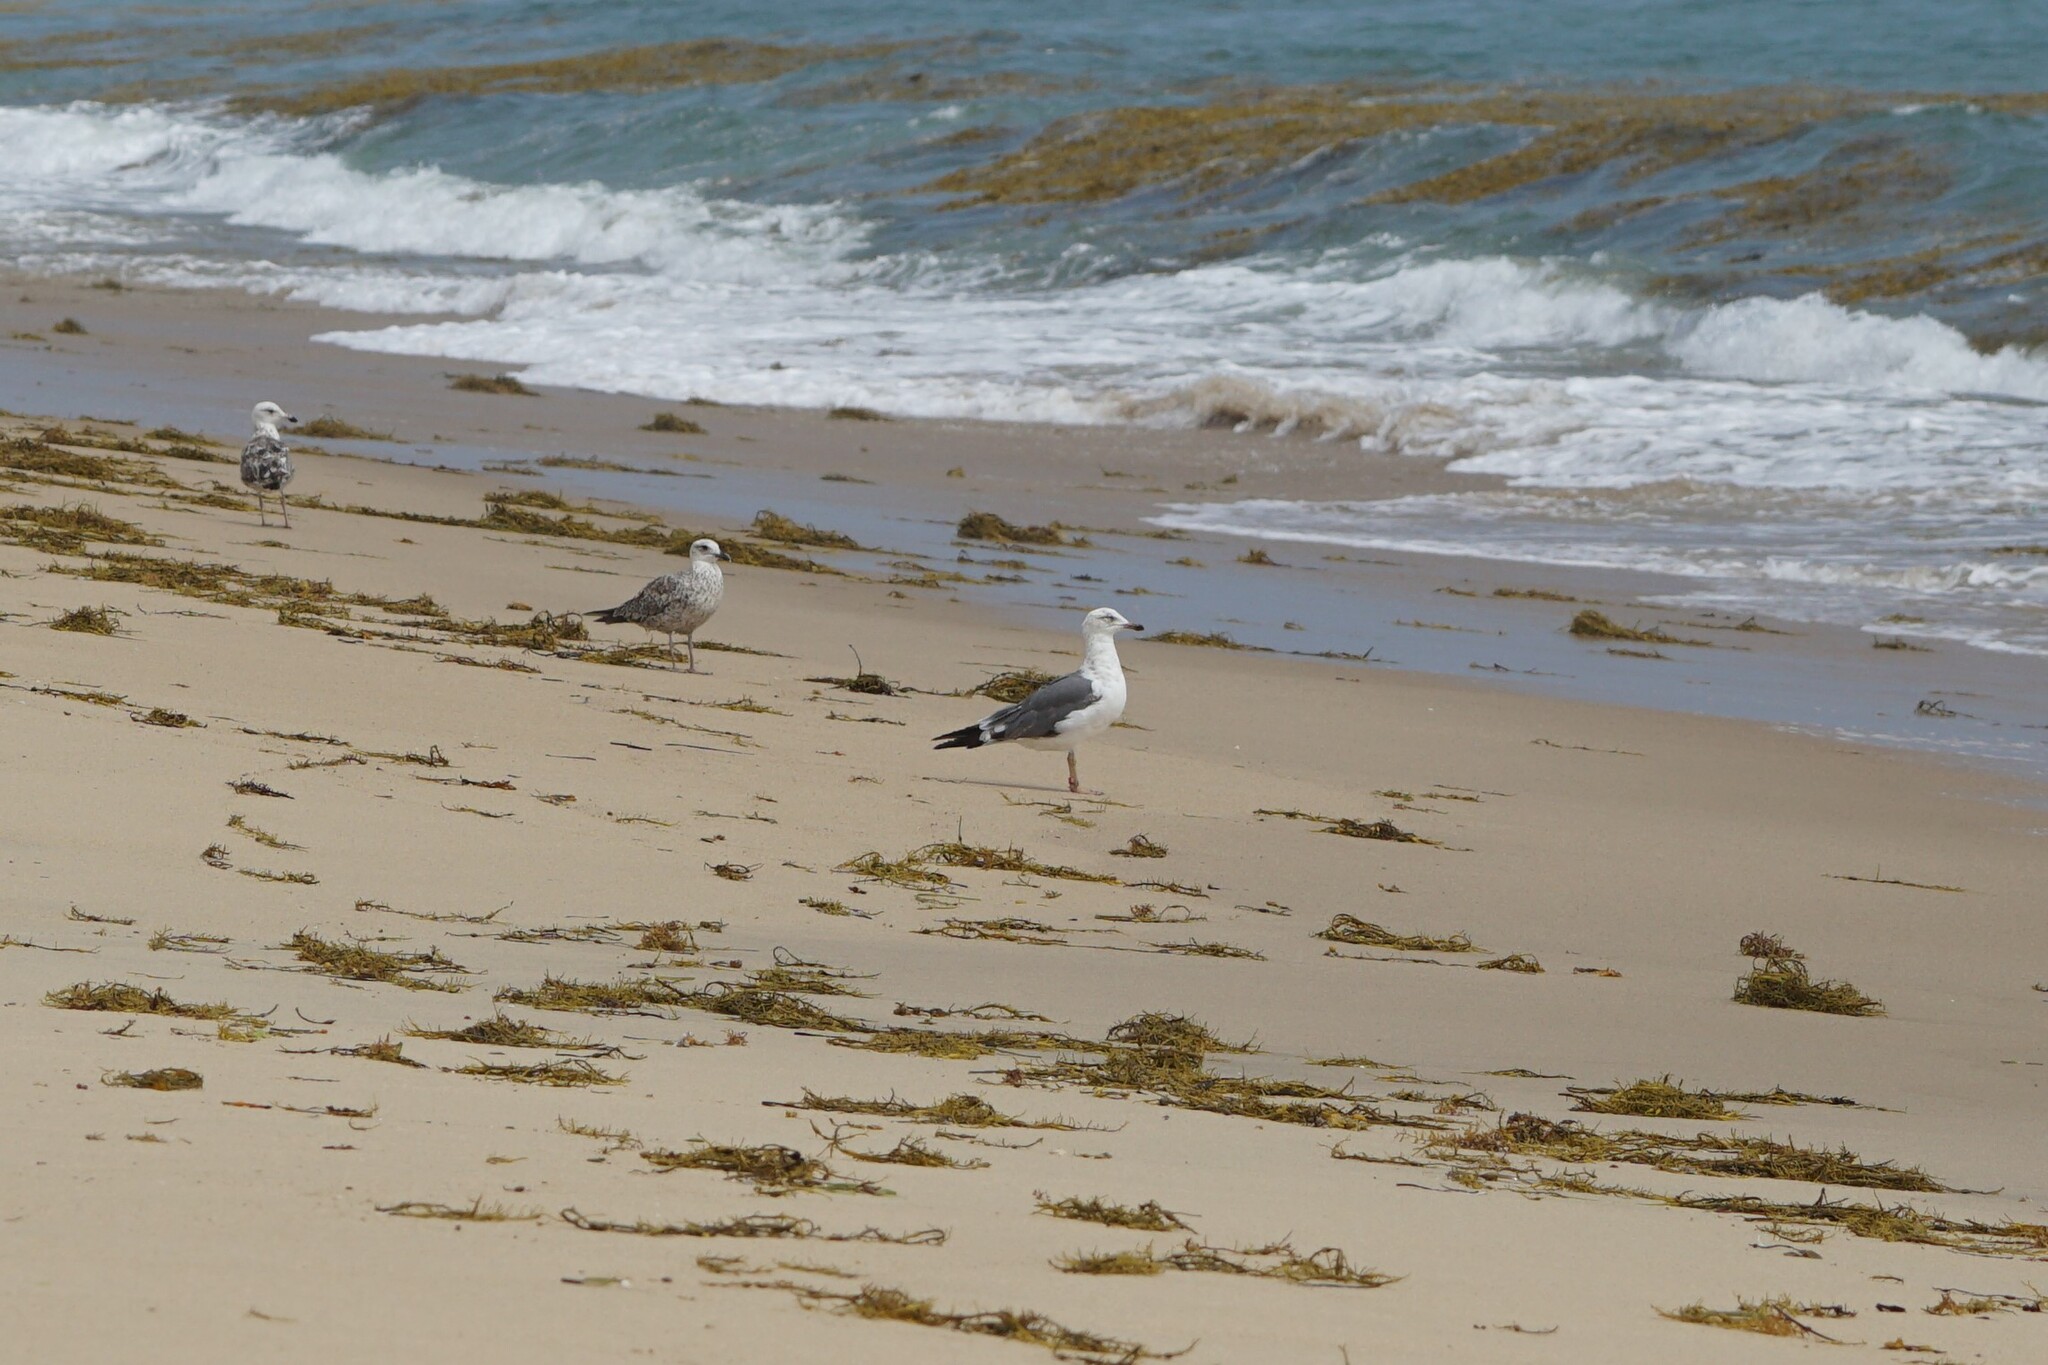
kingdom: Animalia
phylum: Chordata
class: Aves
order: Charadriiformes
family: Laridae
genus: Larus
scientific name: Larus fuscus
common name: Lesser black-backed gull
